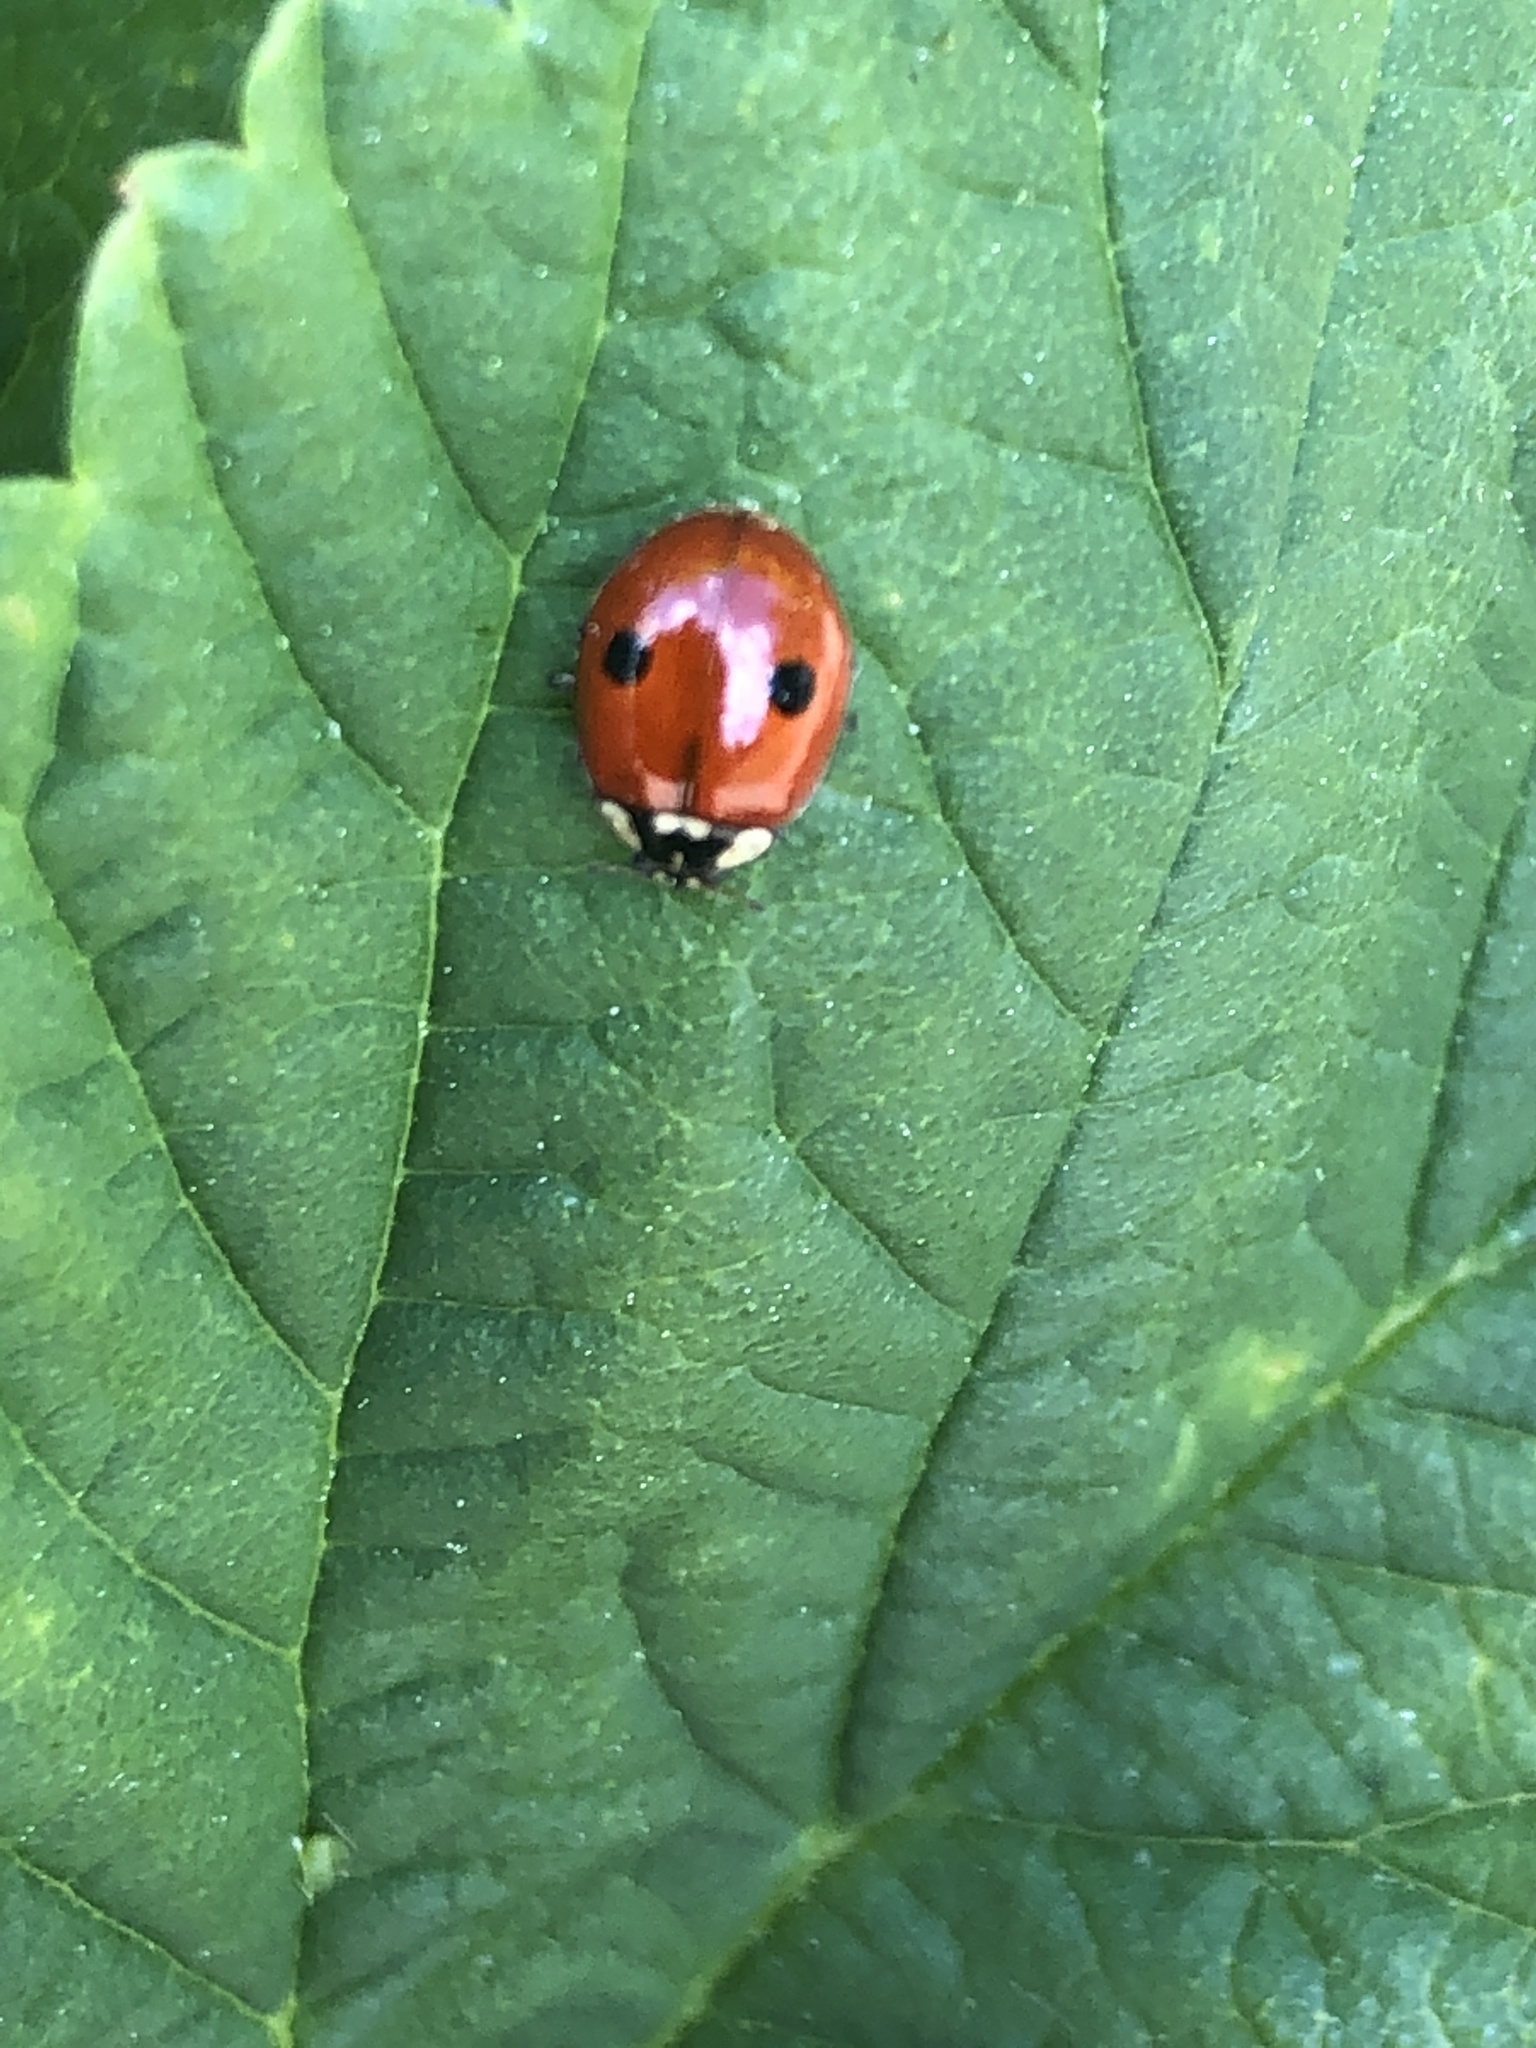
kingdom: Animalia
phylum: Arthropoda
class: Insecta
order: Coleoptera
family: Coccinellidae
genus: Adalia
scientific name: Adalia bipunctata
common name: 2-spot ladybird
